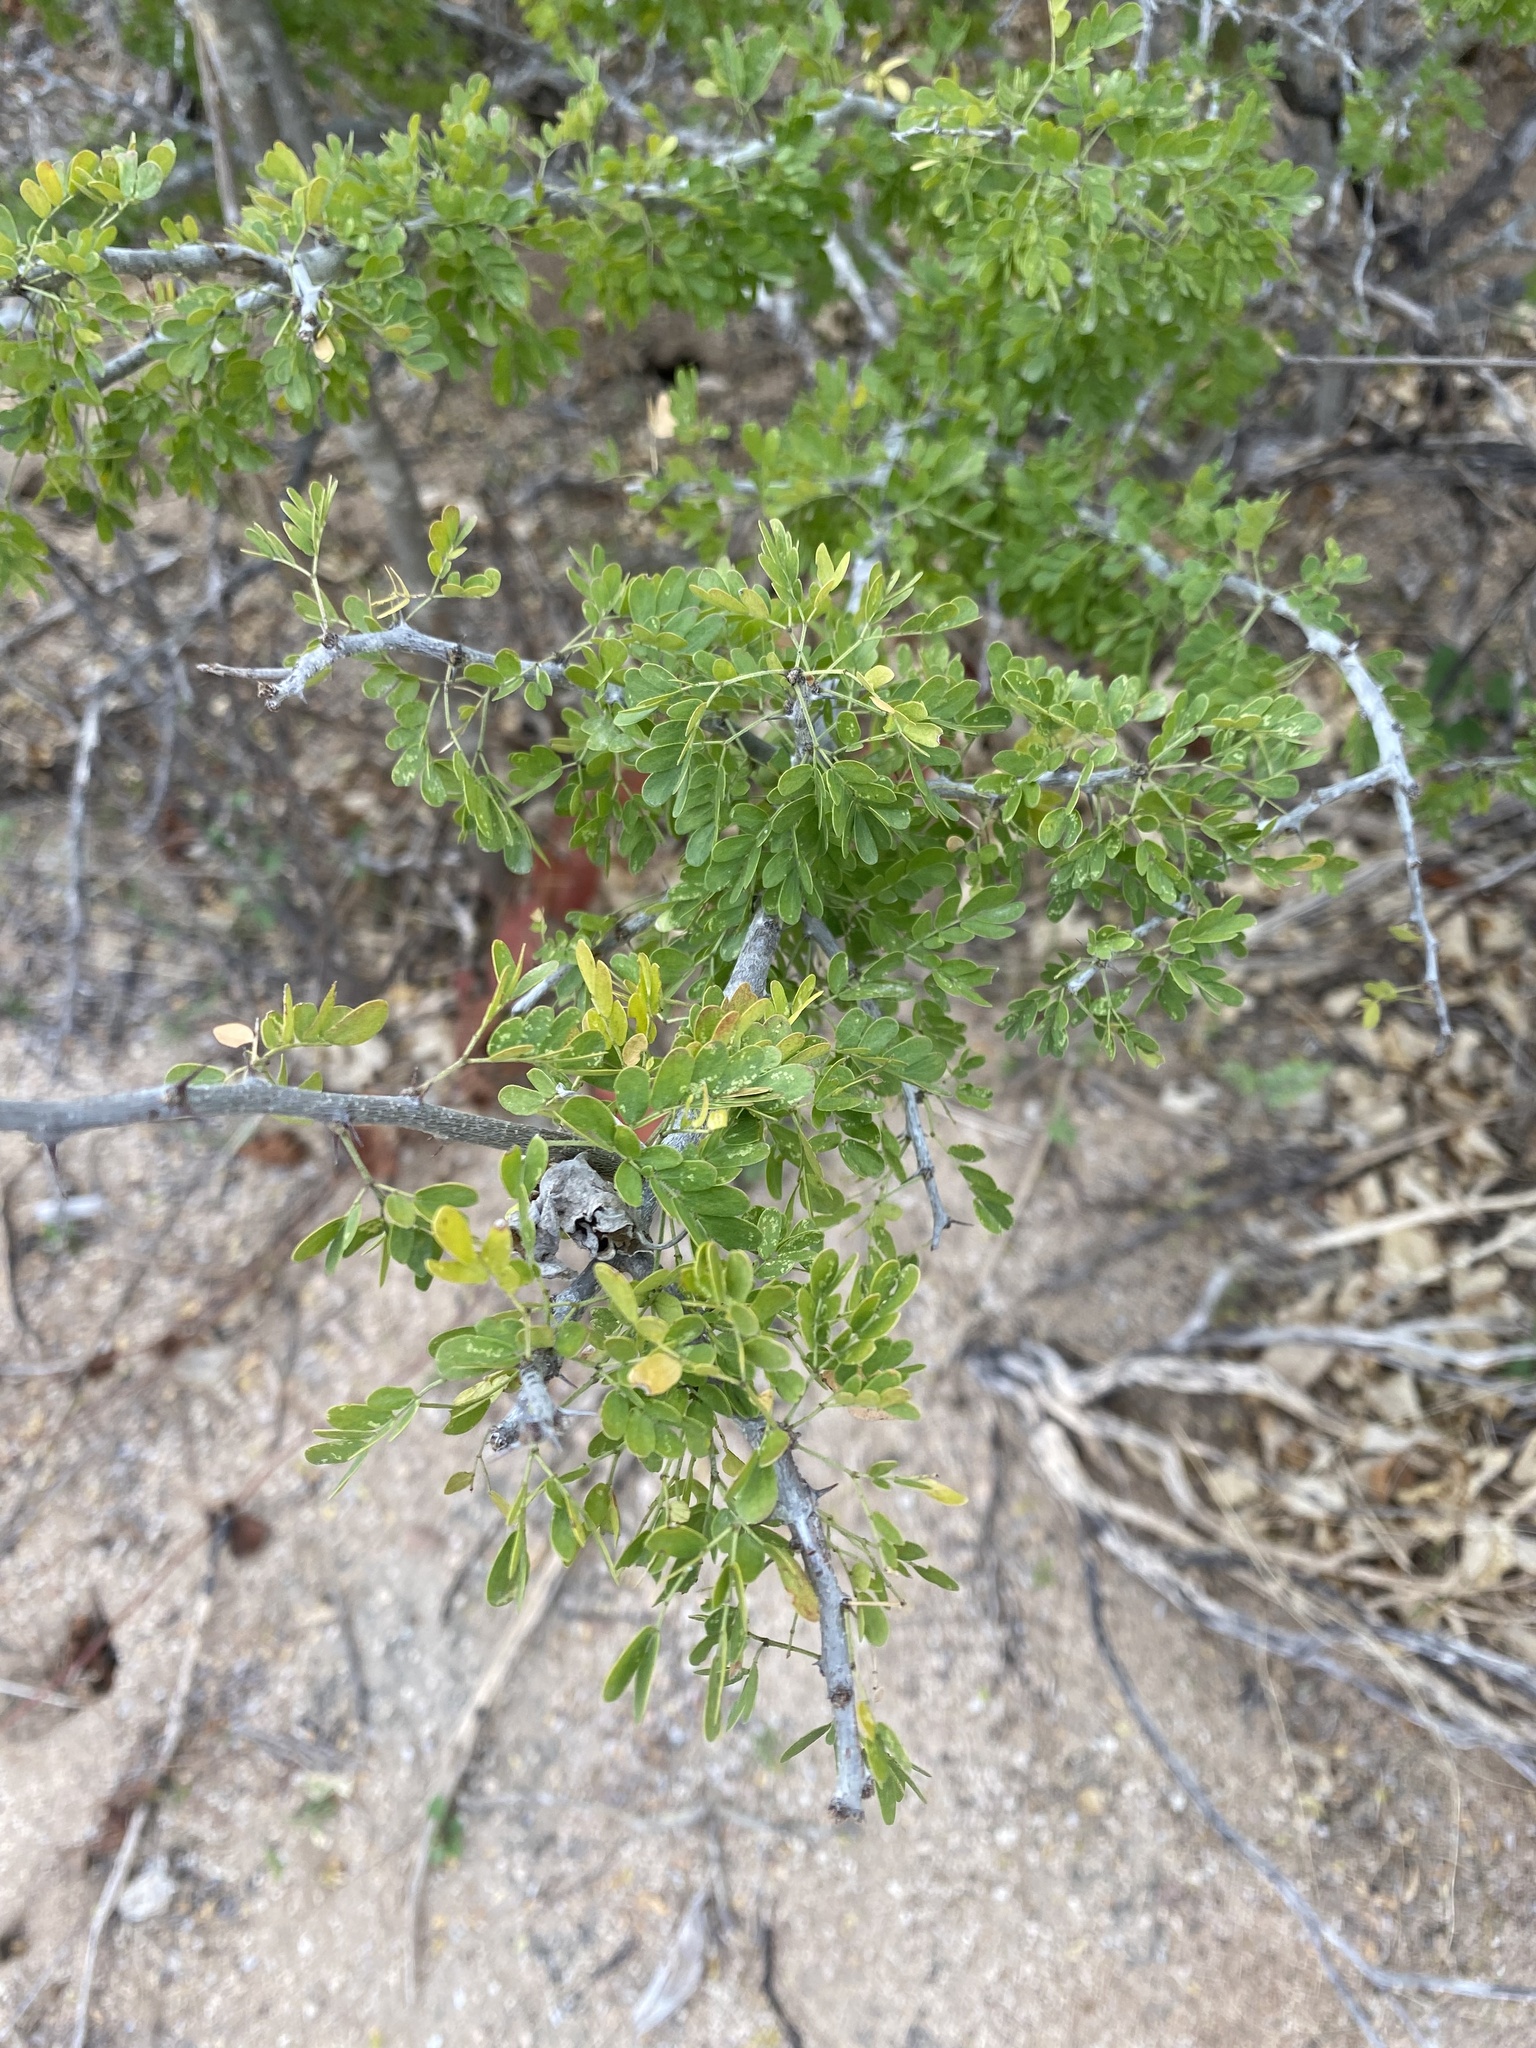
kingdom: Plantae
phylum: Tracheophyta
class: Magnoliopsida
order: Fabales
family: Fabaceae
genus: Ebenopsis
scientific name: Ebenopsis confinis
